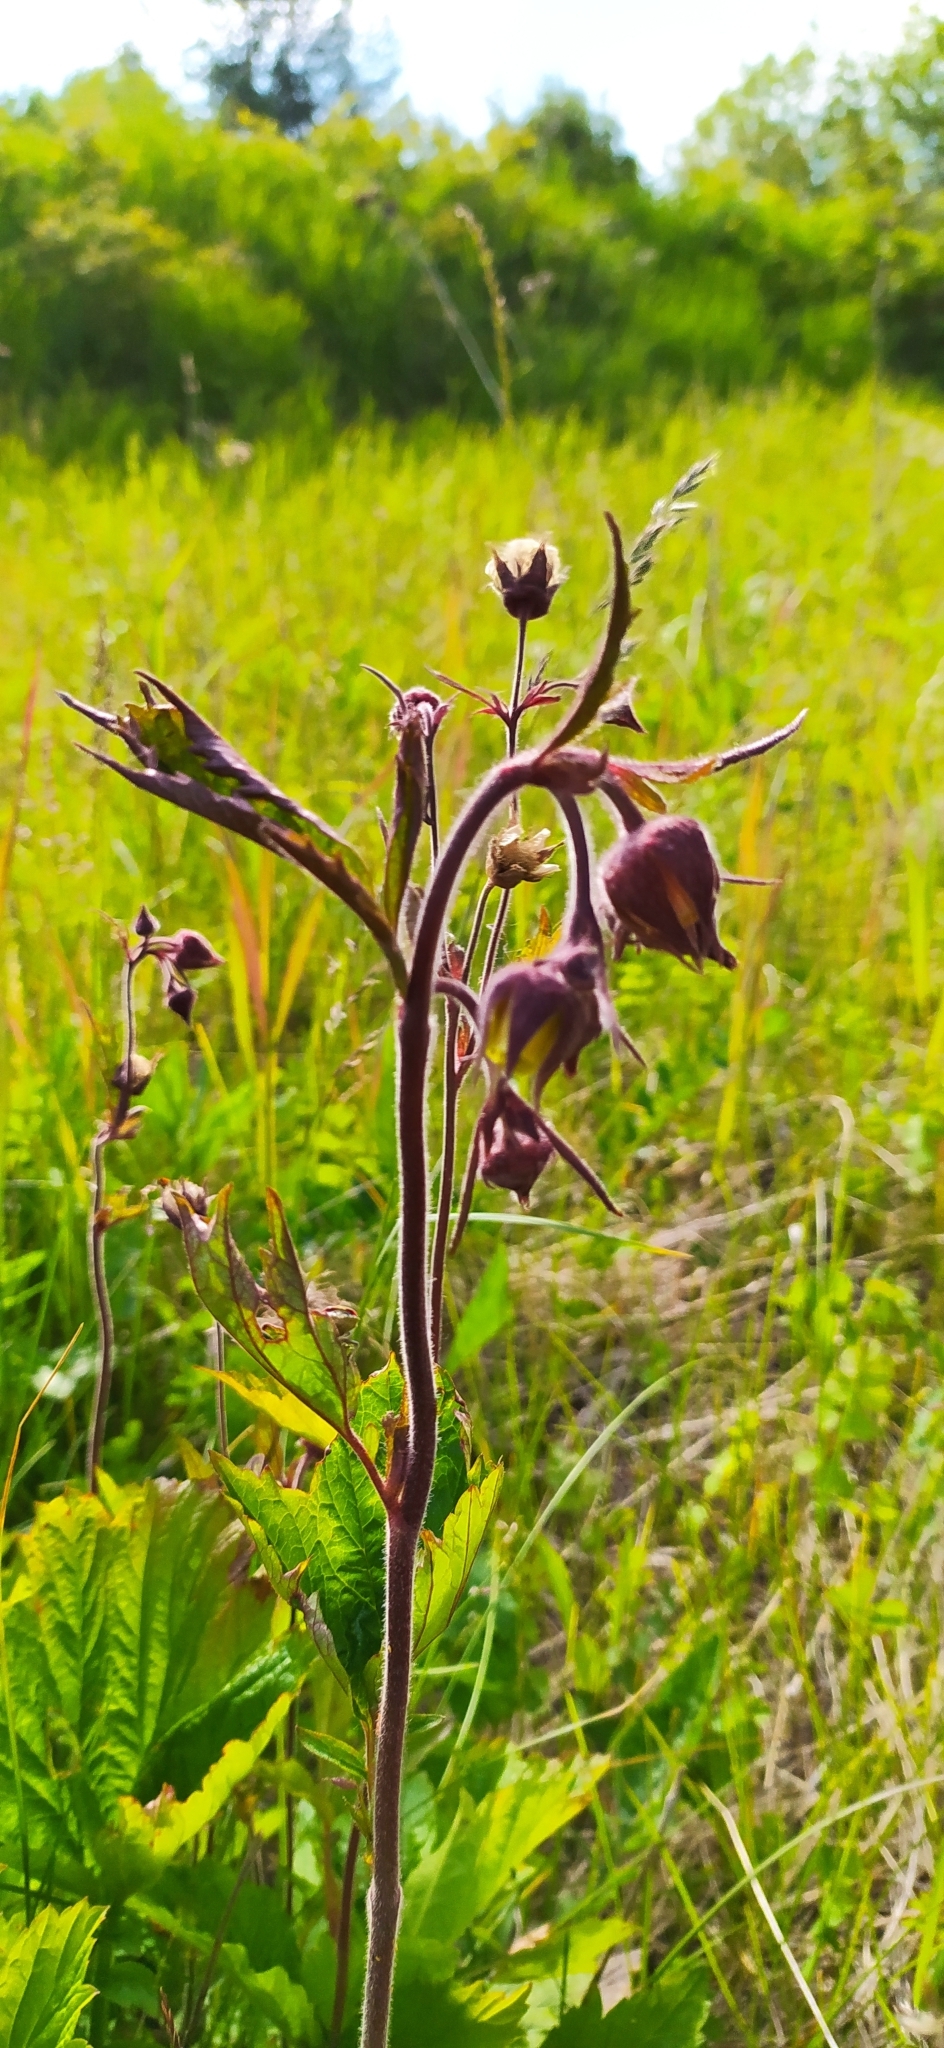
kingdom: Plantae
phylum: Tracheophyta
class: Magnoliopsida
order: Rosales
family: Rosaceae
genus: Geum
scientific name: Geum rivale
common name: Water avens
